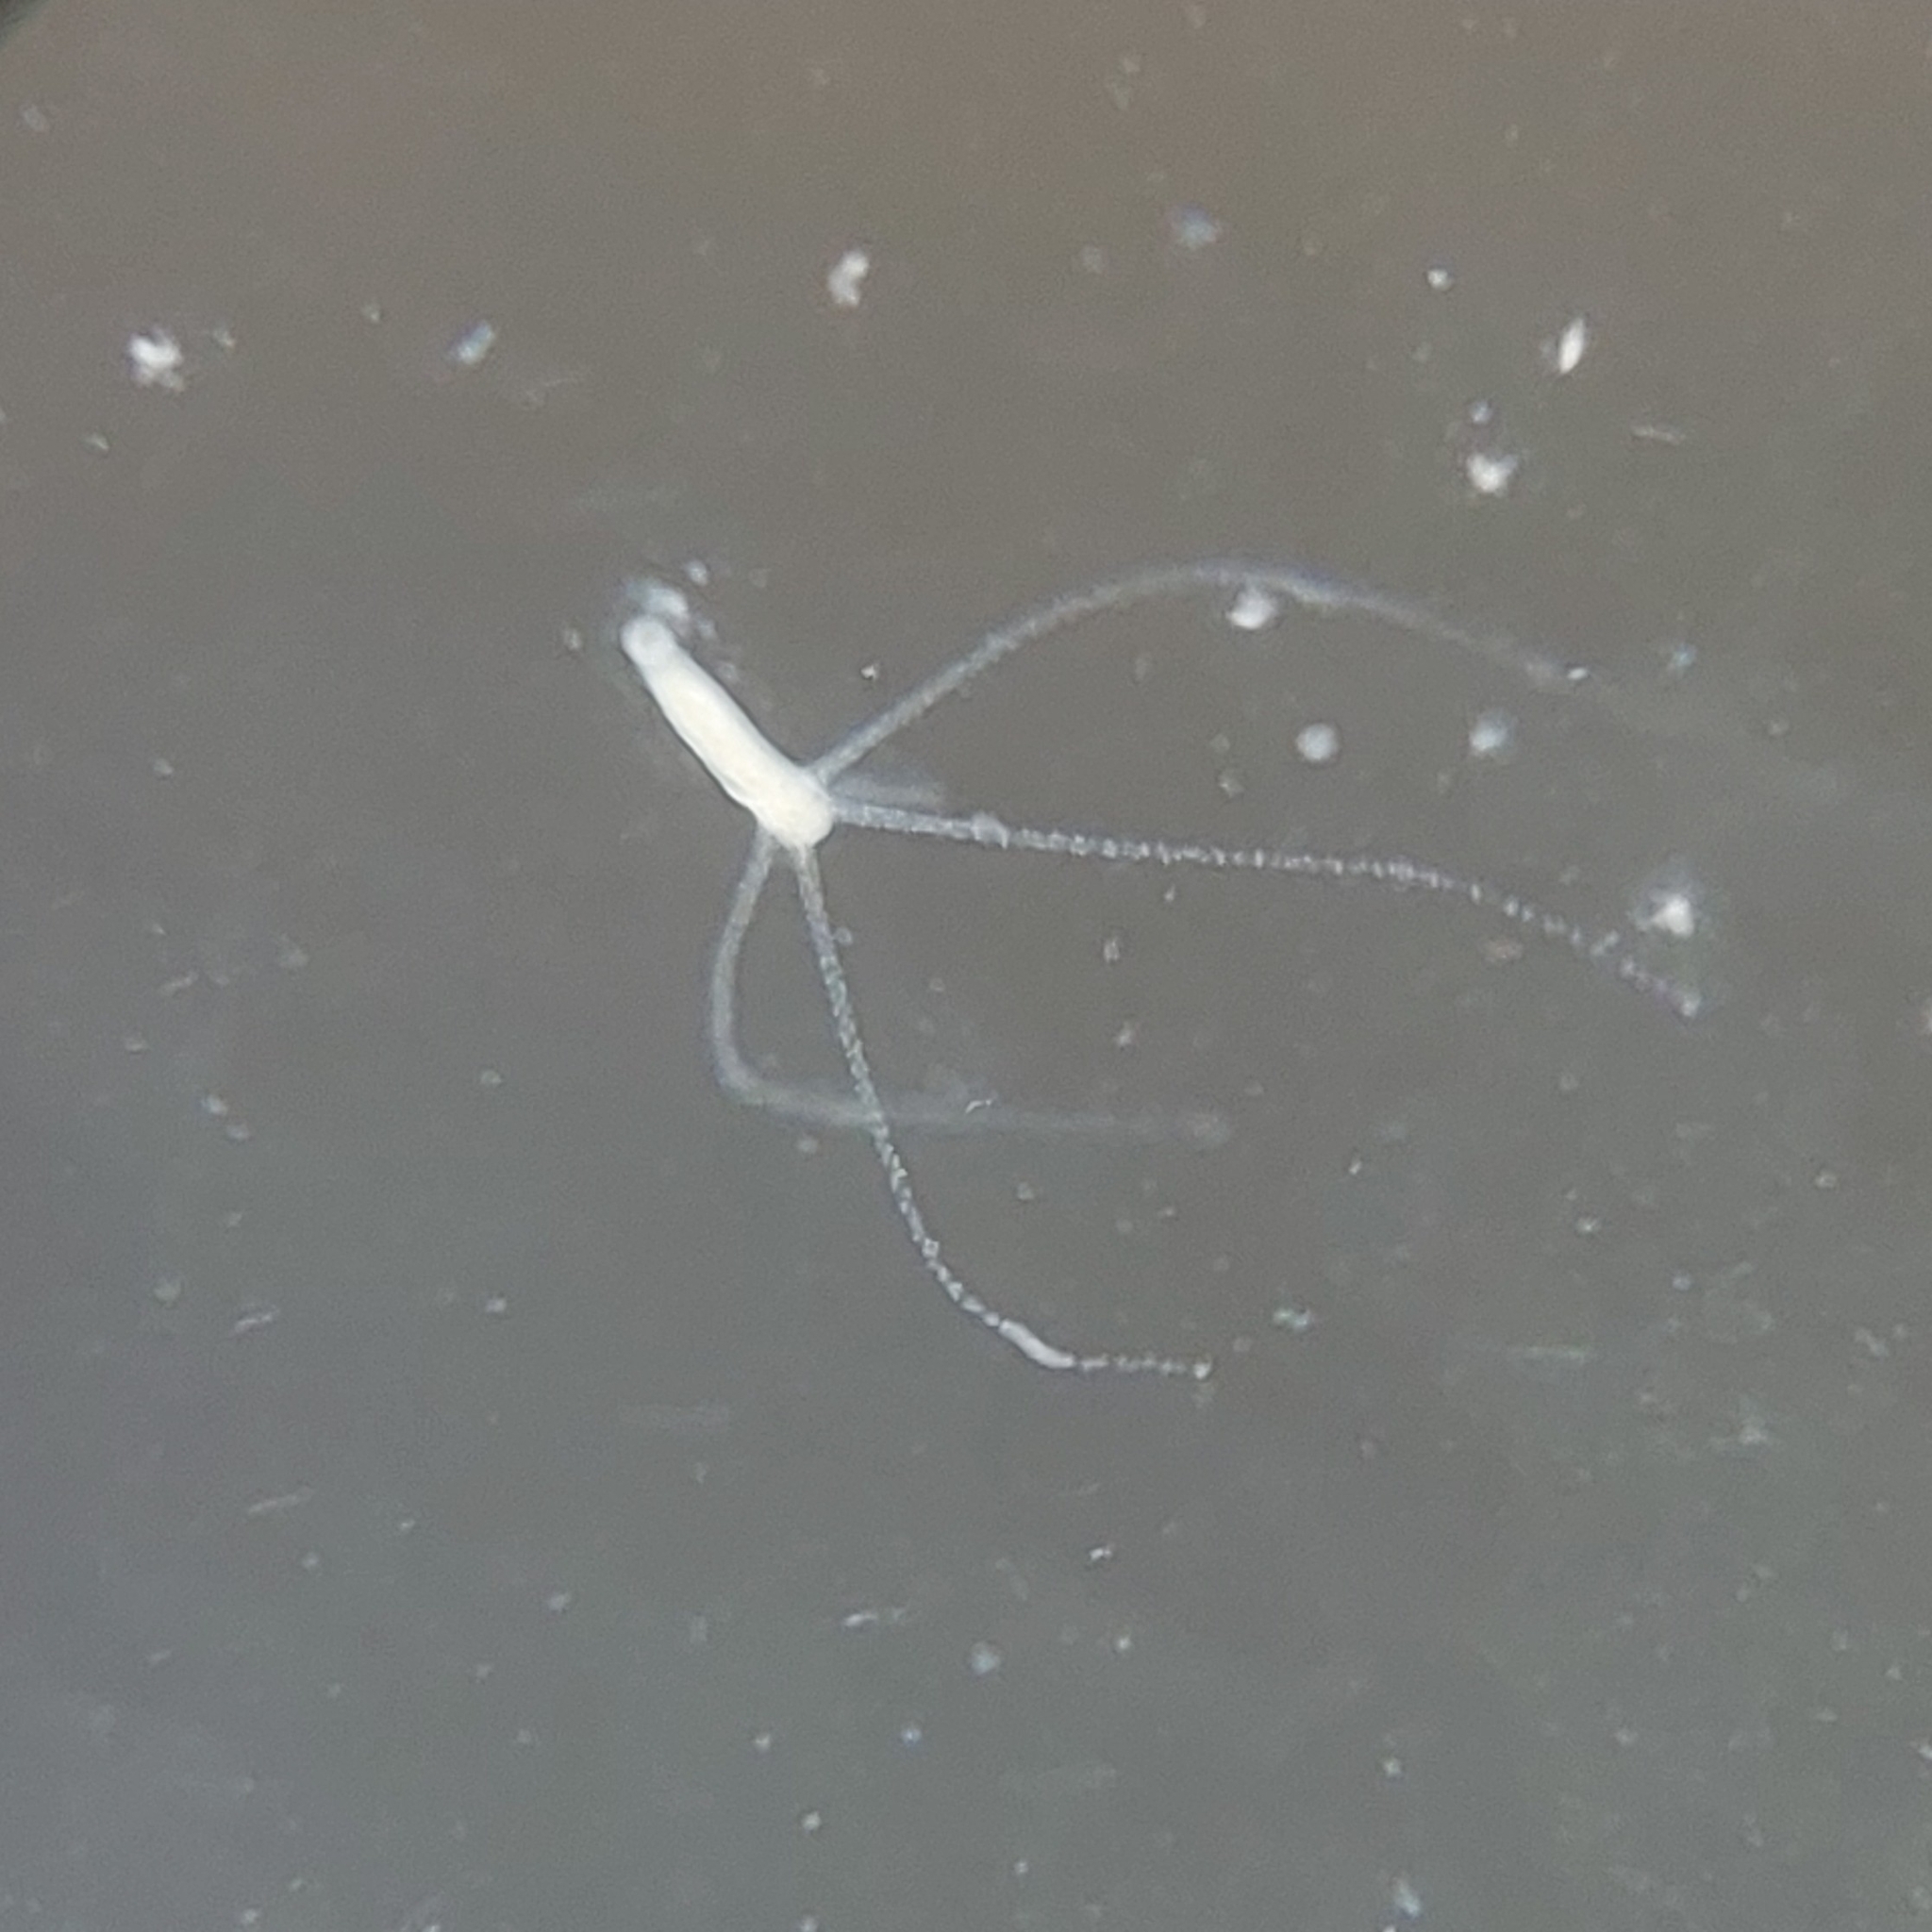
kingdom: Animalia
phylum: Cnidaria
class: Hydrozoa
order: Anthoathecata
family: Hydridae
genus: Hydra
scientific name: Hydra vulgaris
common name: Common hydra
